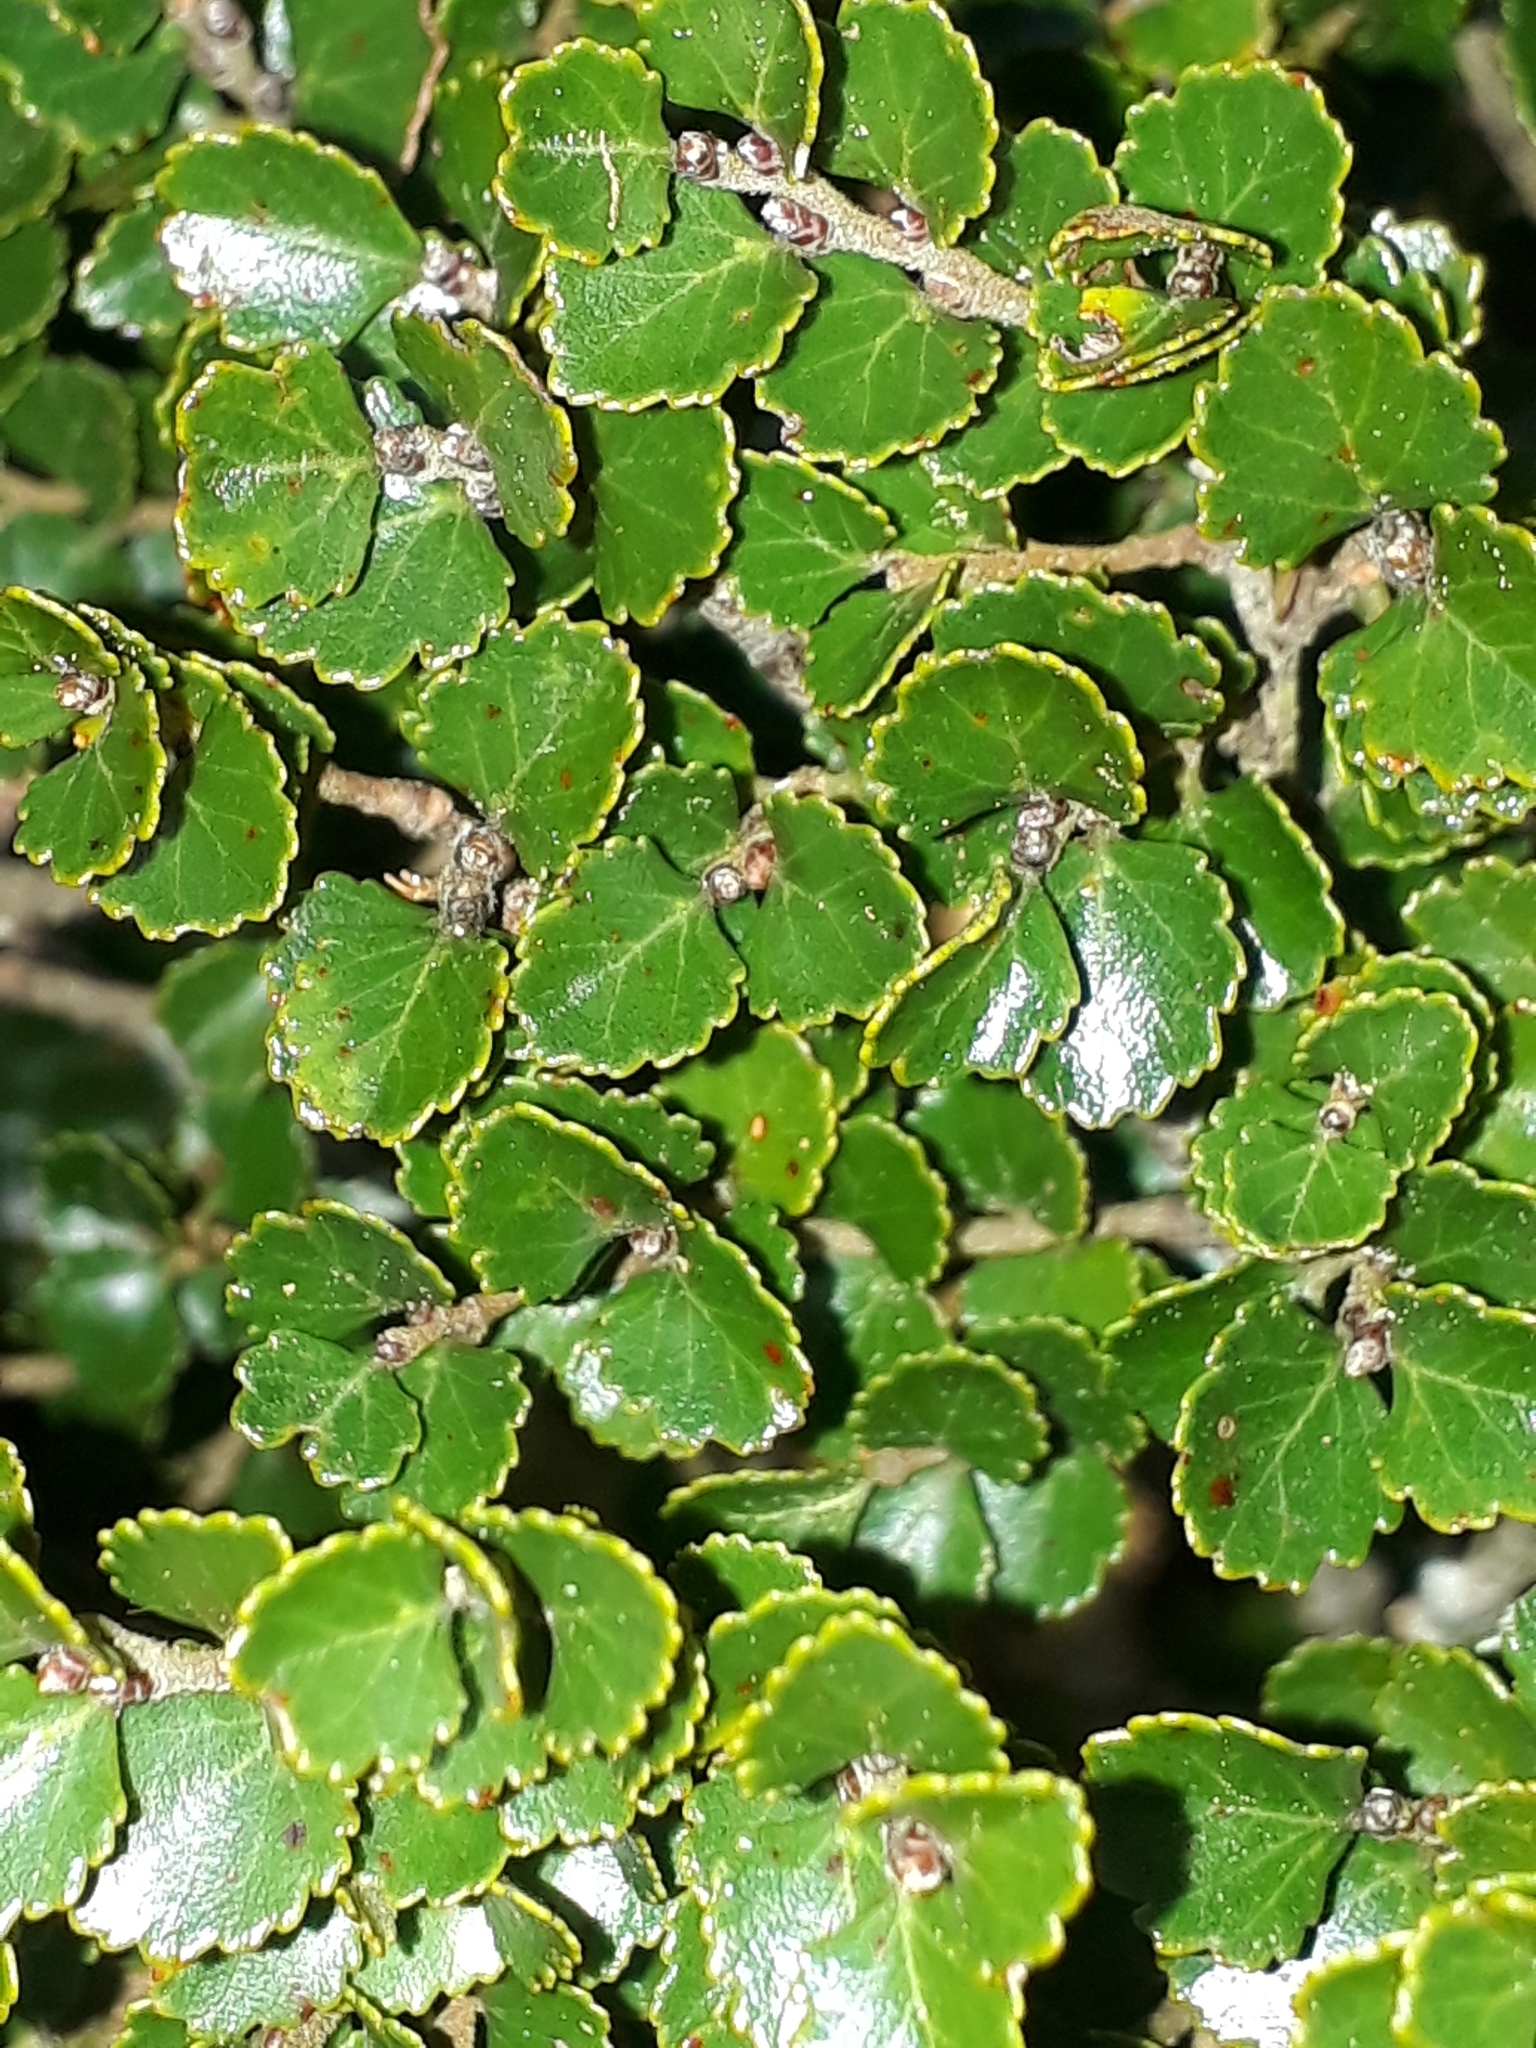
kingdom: Plantae
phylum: Tracheophyta
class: Magnoliopsida
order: Fagales
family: Nothofagaceae
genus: Nothofagus
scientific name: Nothofagus menziesii
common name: Silver beech
